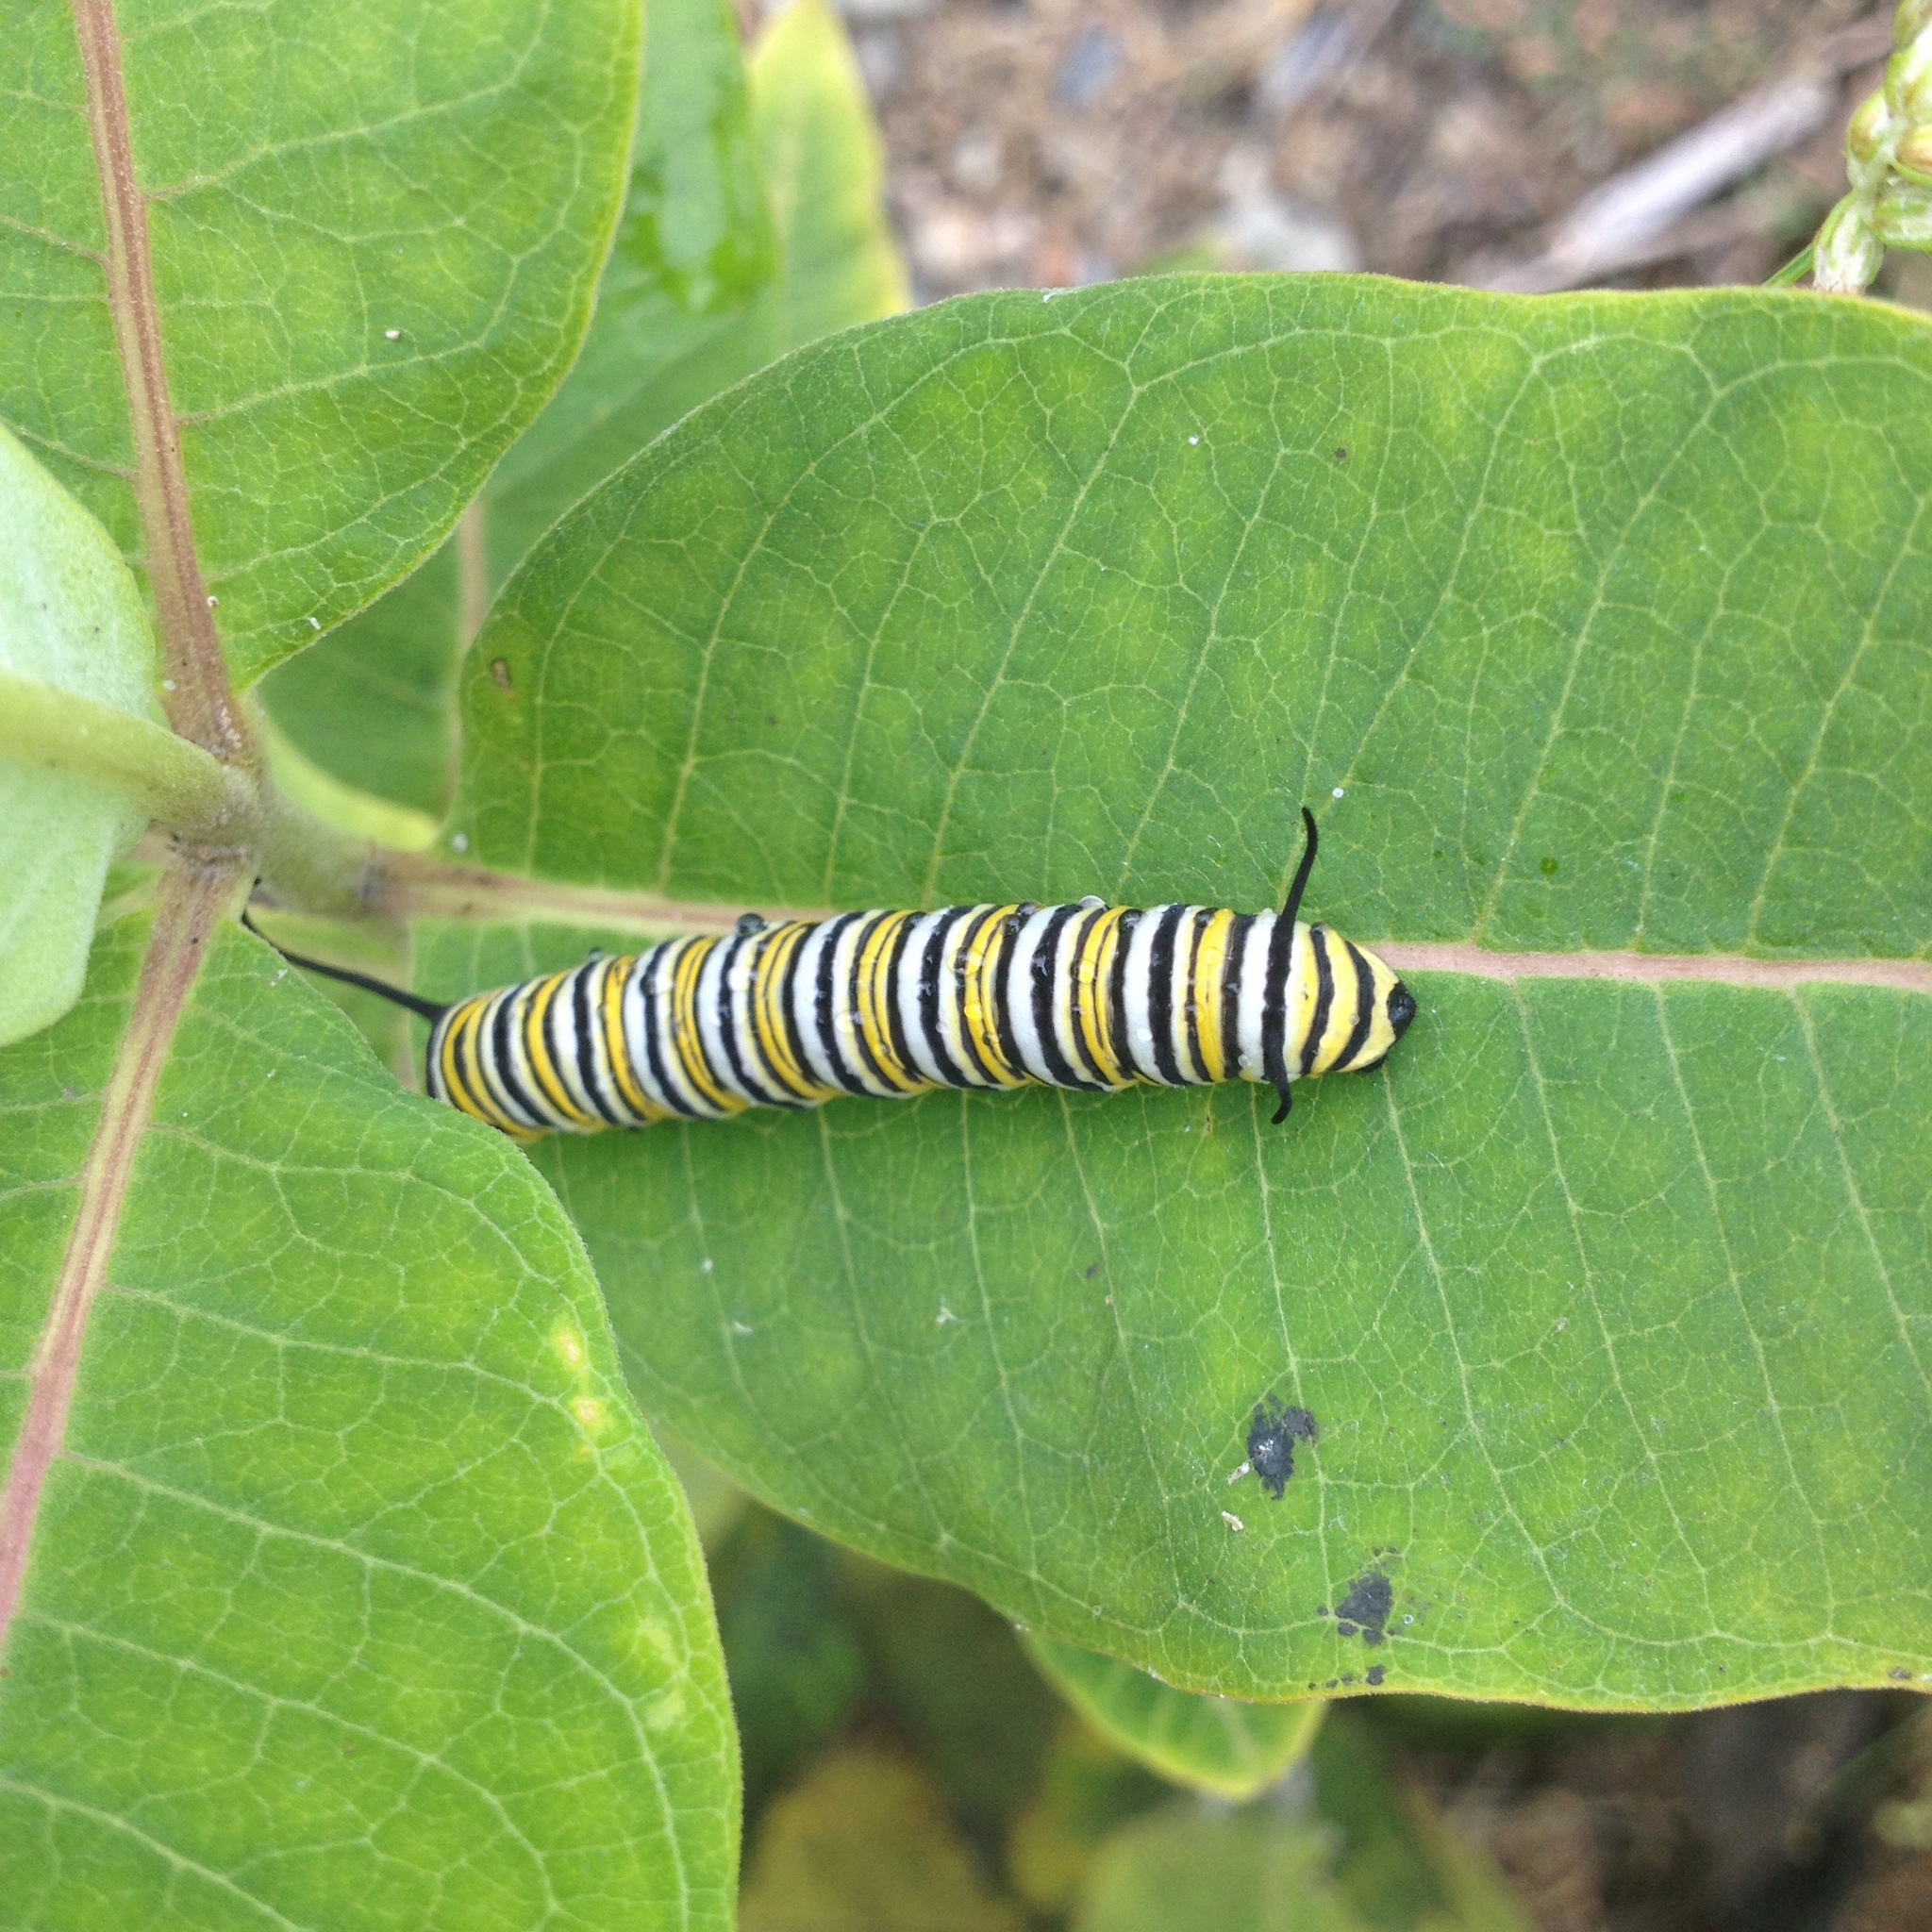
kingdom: Animalia
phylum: Arthropoda
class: Insecta
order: Lepidoptera
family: Nymphalidae
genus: Danaus
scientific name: Danaus plexippus
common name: Monarch
